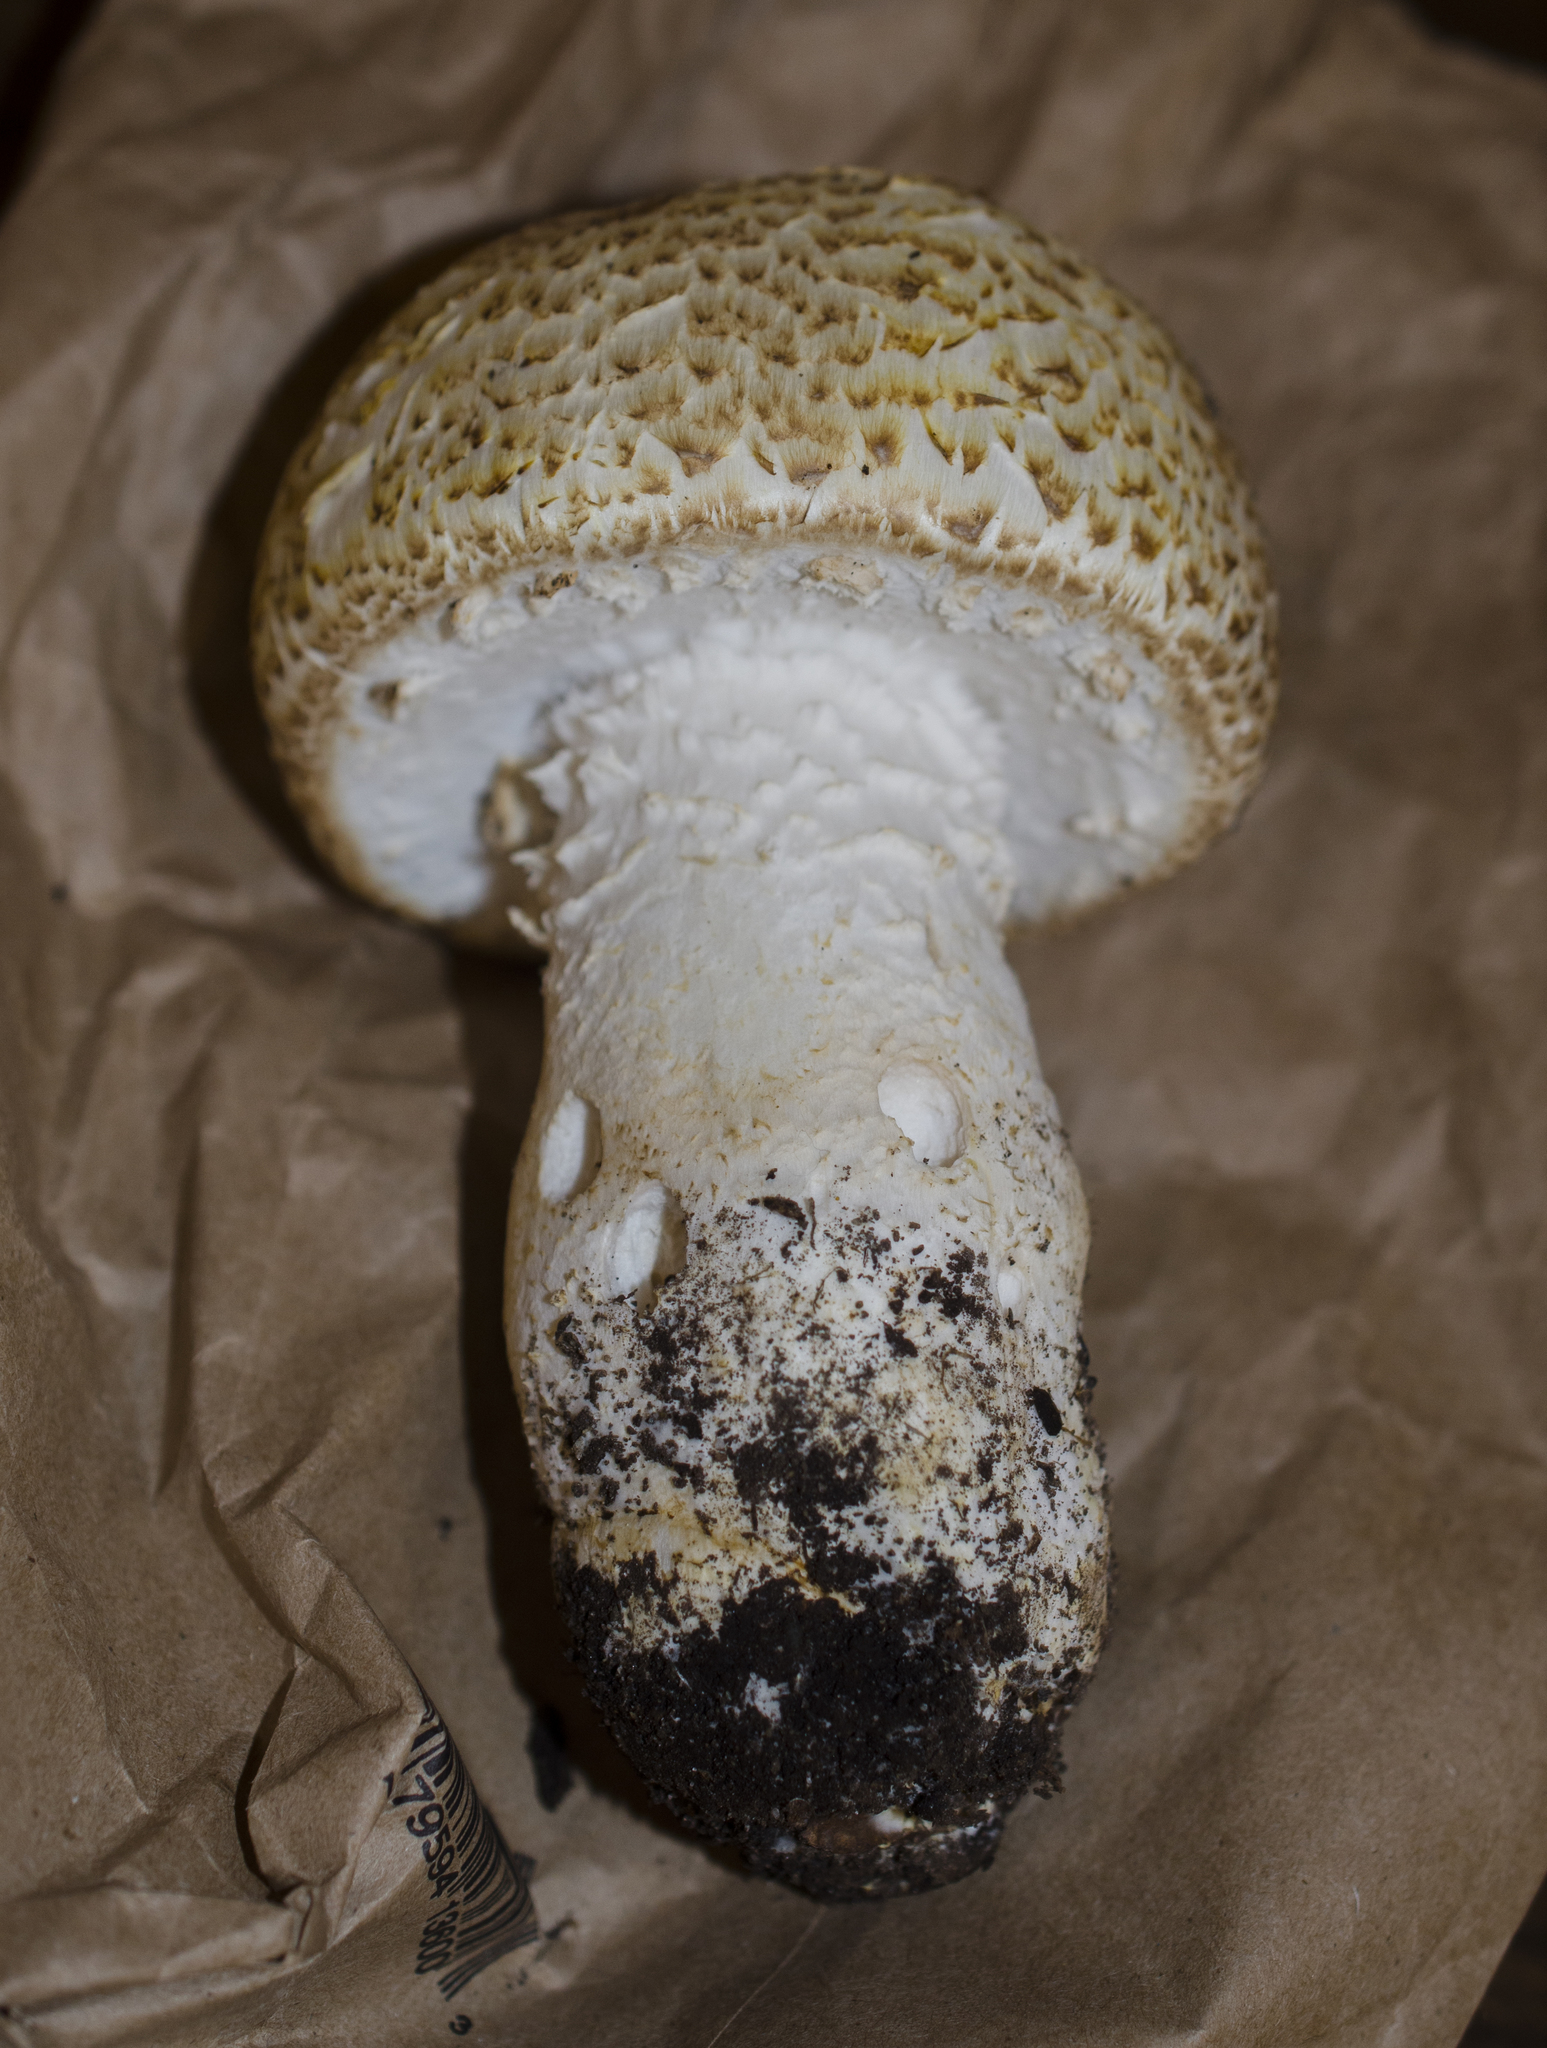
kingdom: Fungi
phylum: Basidiomycota
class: Agaricomycetes
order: Agaricales
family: Agaricaceae
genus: Agaricus
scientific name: Agaricus augustus
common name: Prince
